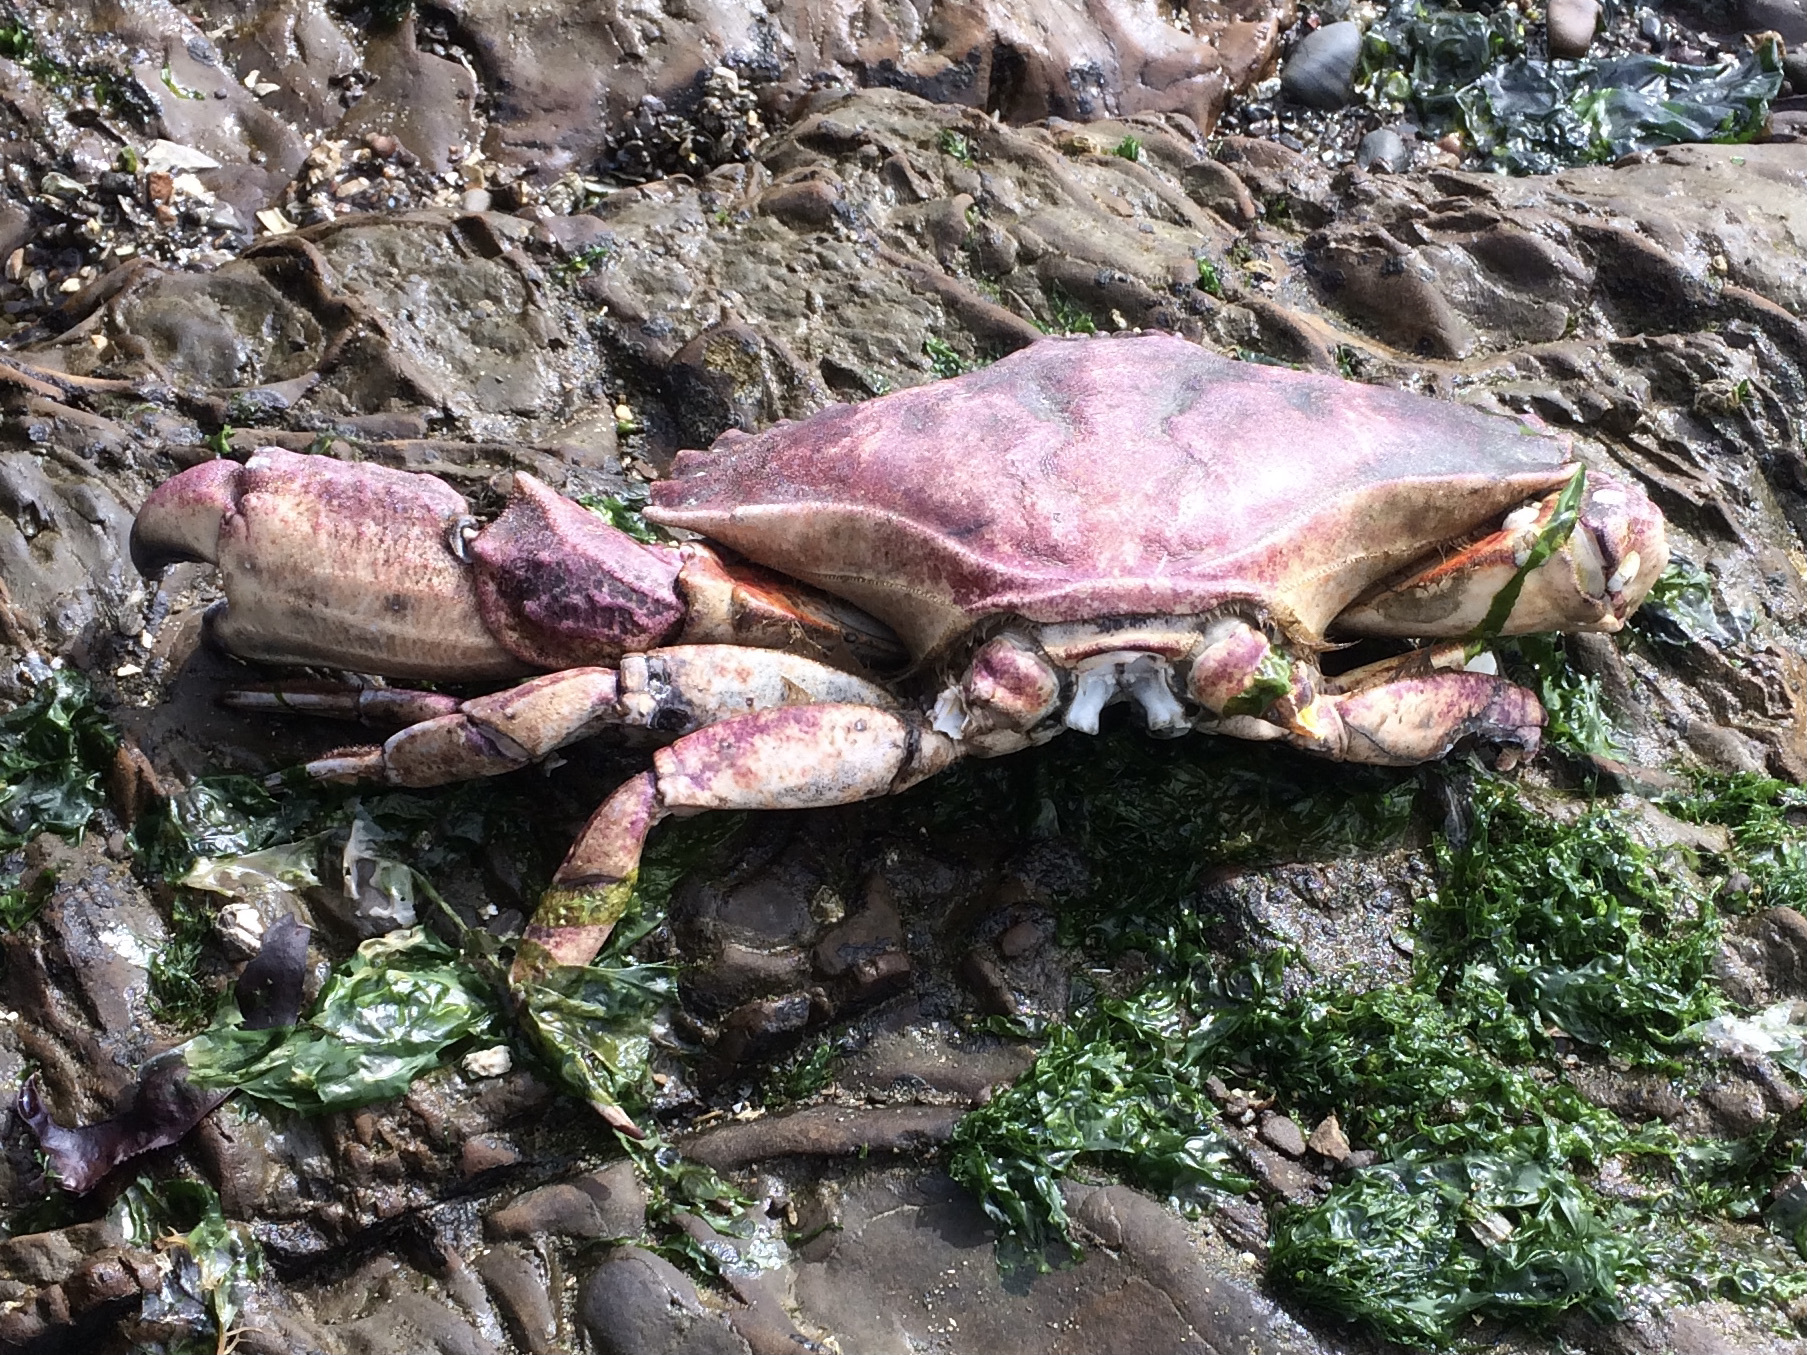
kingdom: Animalia
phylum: Arthropoda
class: Malacostraca
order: Decapoda
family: Cancridae
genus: Cancer
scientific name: Cancer productus
